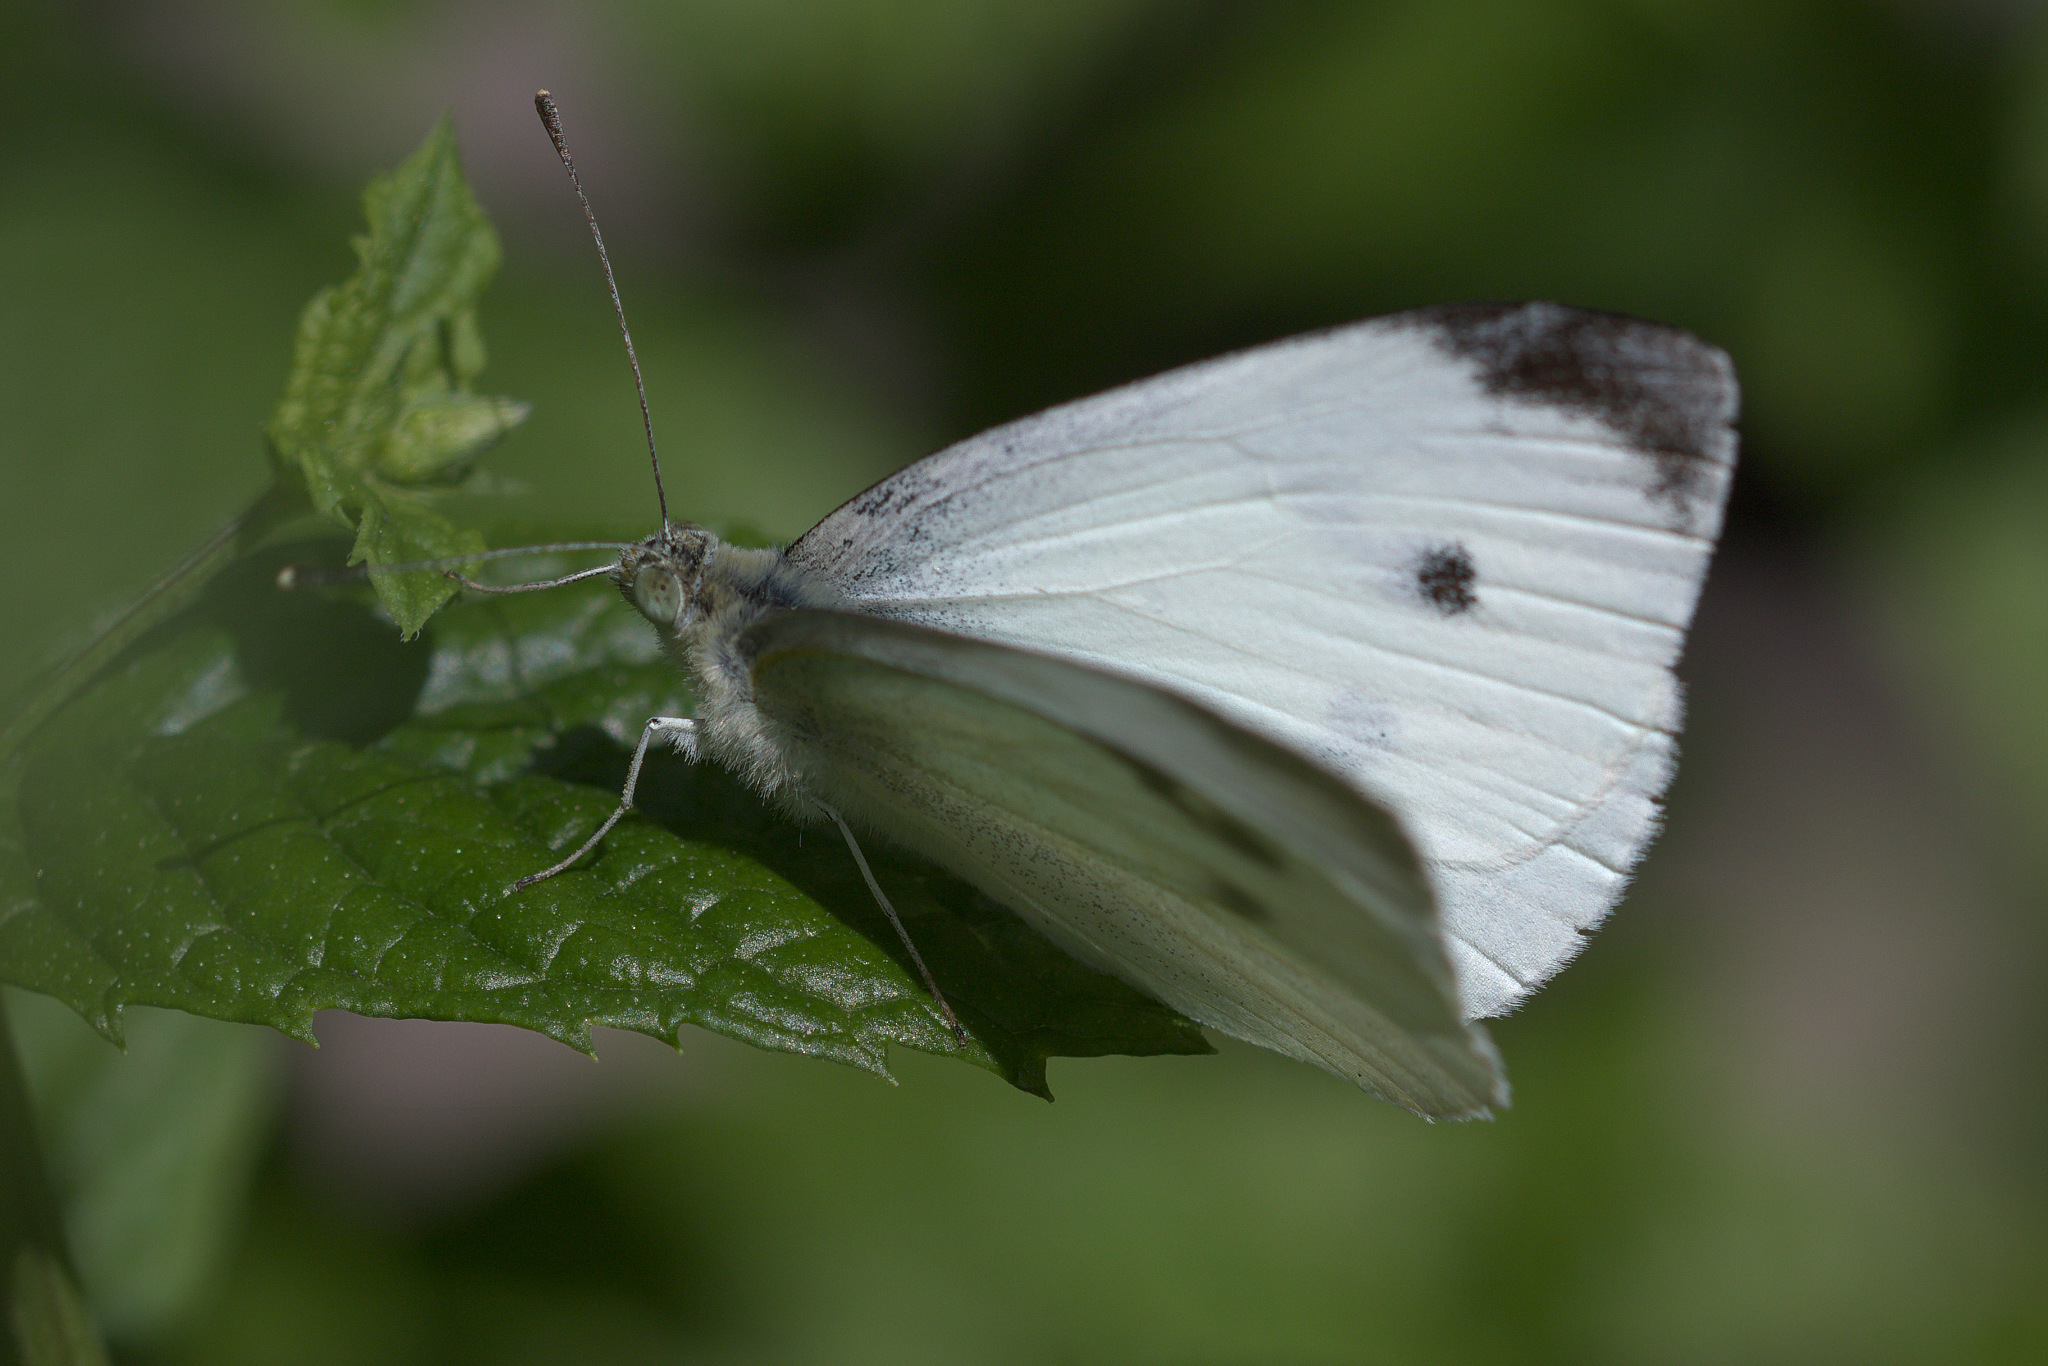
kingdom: Animalia
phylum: Arthropoda
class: Insecta
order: Lepidoptera
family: Pieridae
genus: Pieris
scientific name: Pieris rapae
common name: Small white
